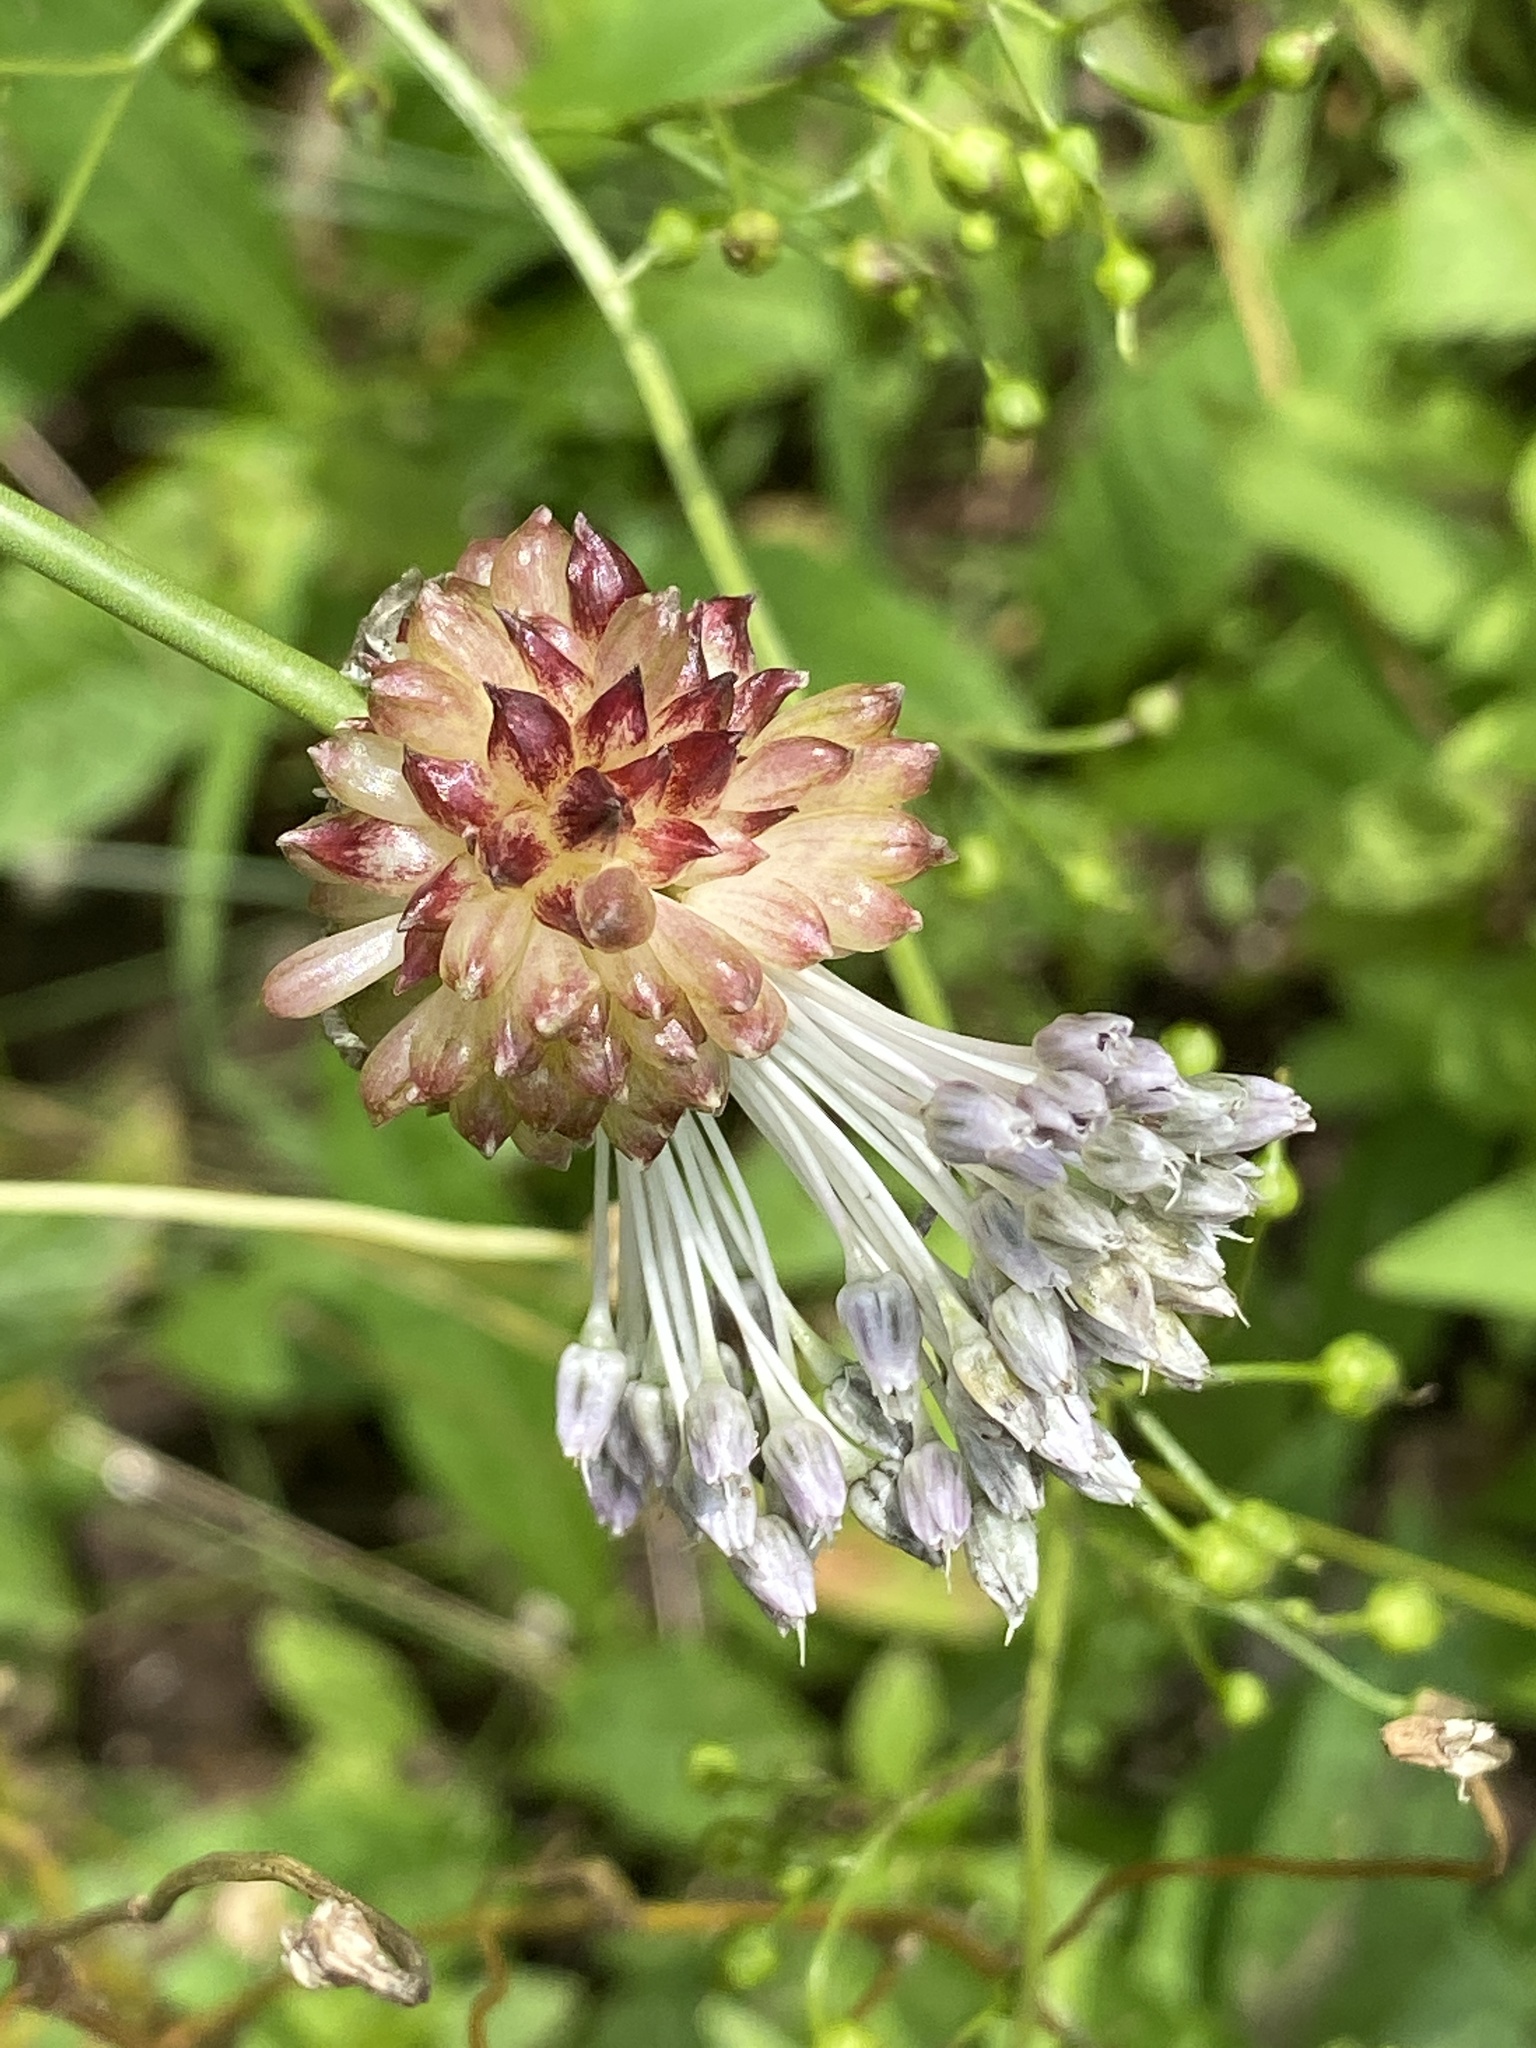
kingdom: Plantae
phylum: Tracheophyta
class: Liliopsida
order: Asparagales
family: Amaryllidaceae
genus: Allium
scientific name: Allium vineale
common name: Crow garlic
